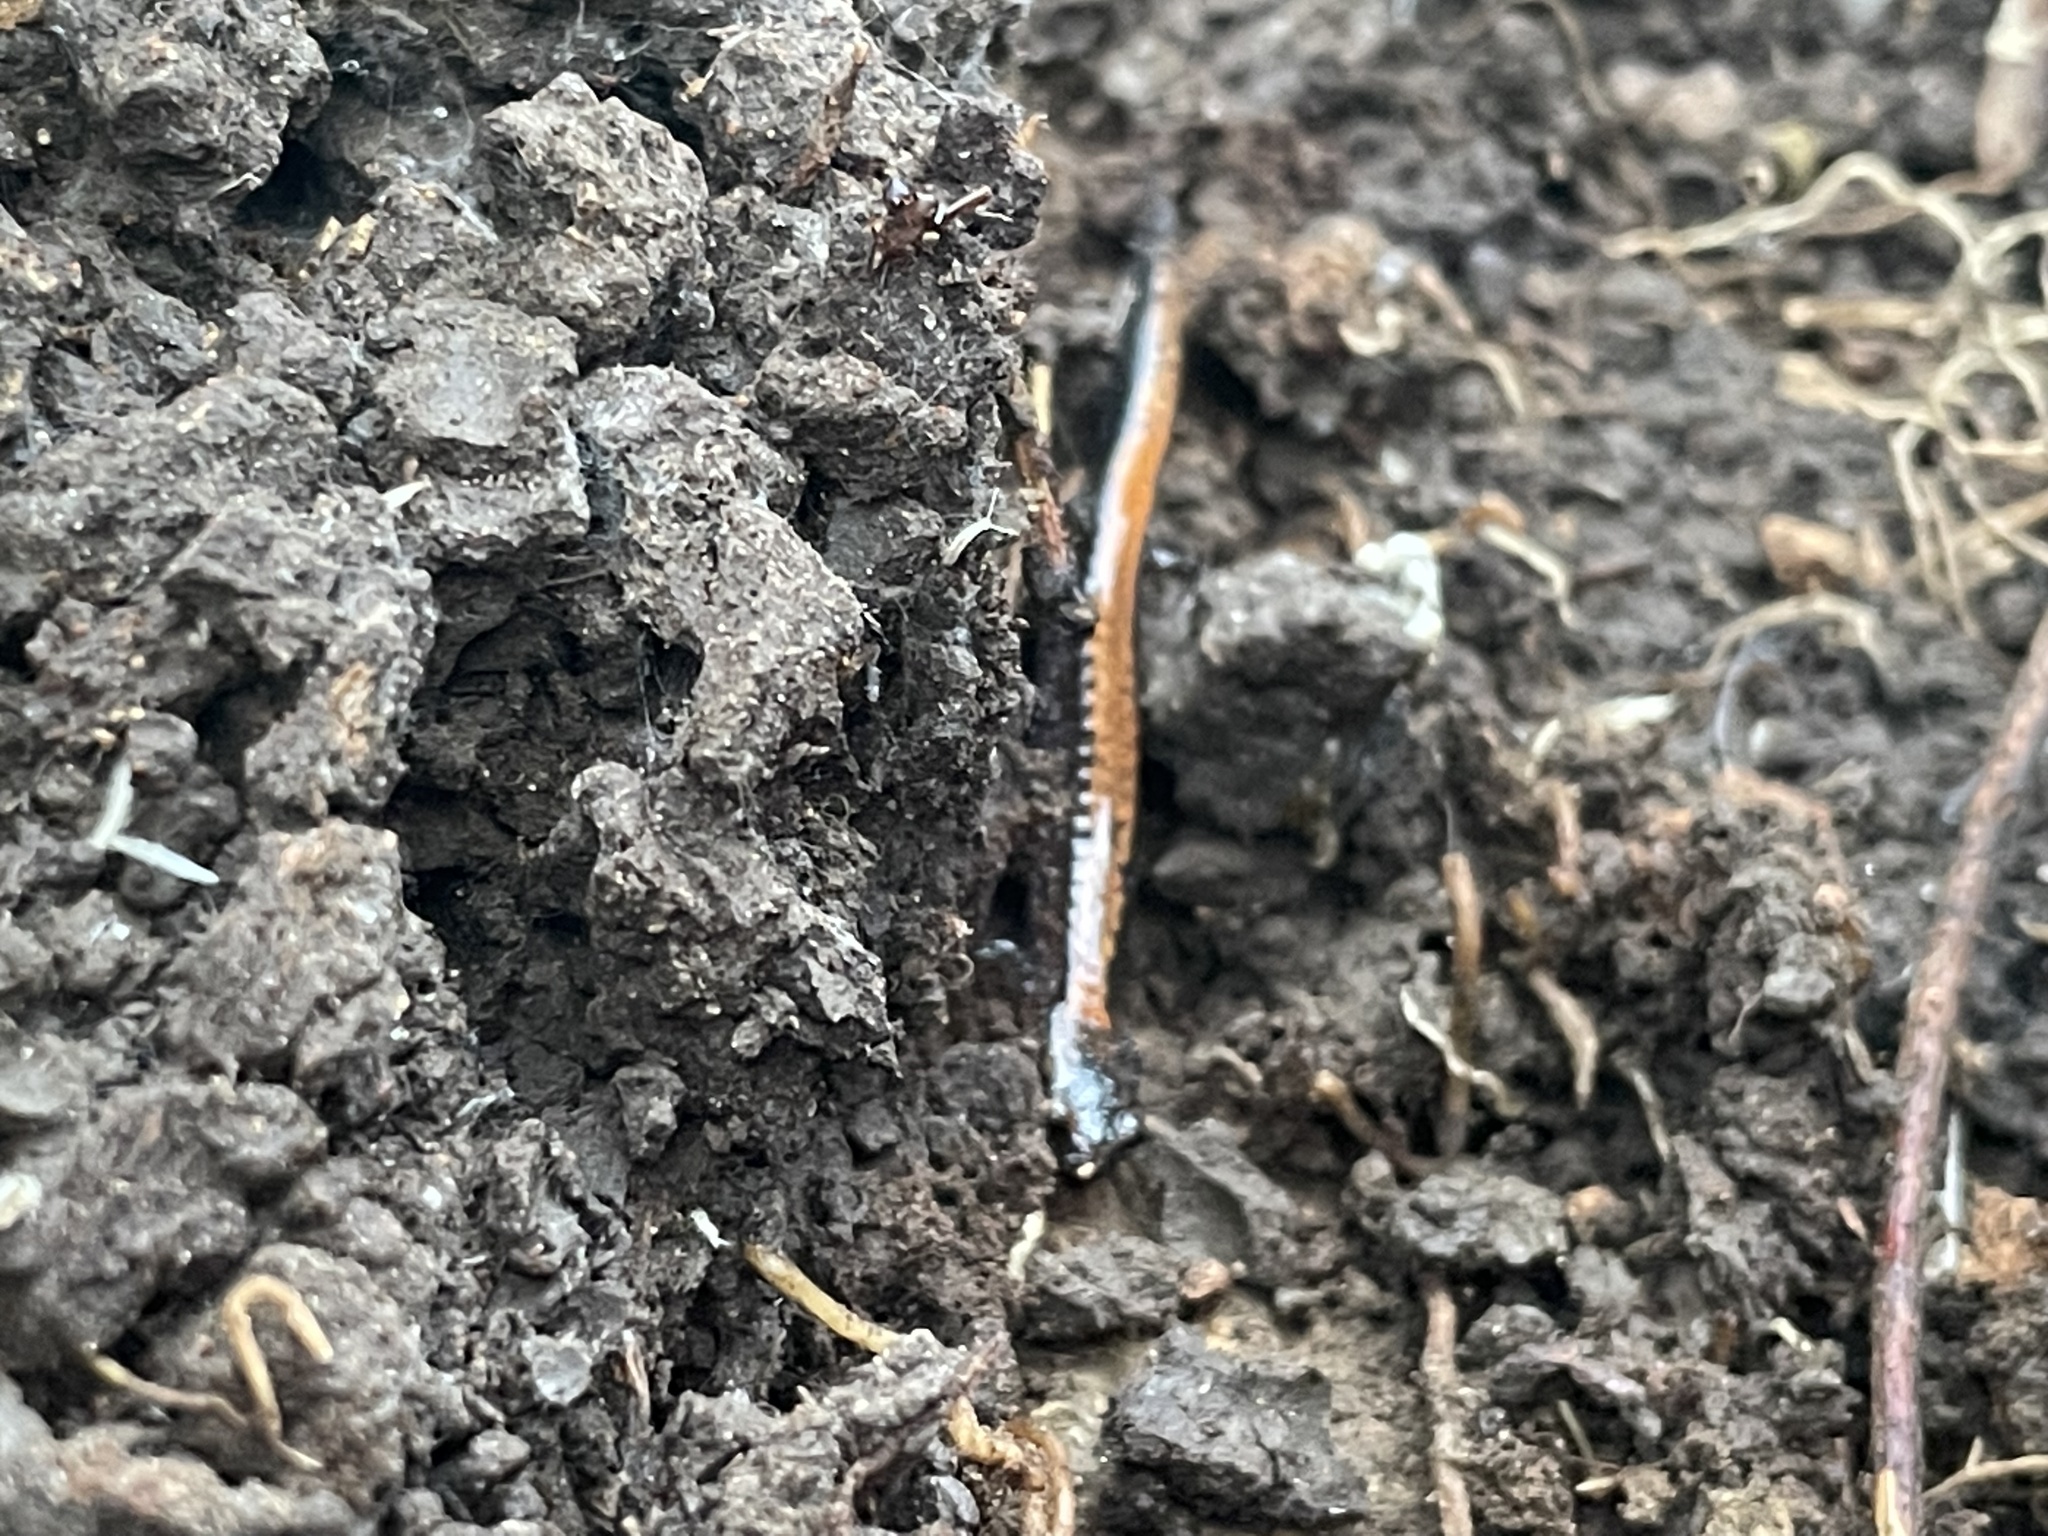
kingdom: Animalia
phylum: Chordata
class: Amphibia
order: Caudata
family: Plethodontidae
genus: Plethodon
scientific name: Plethodon cinereus
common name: Redback salamander
